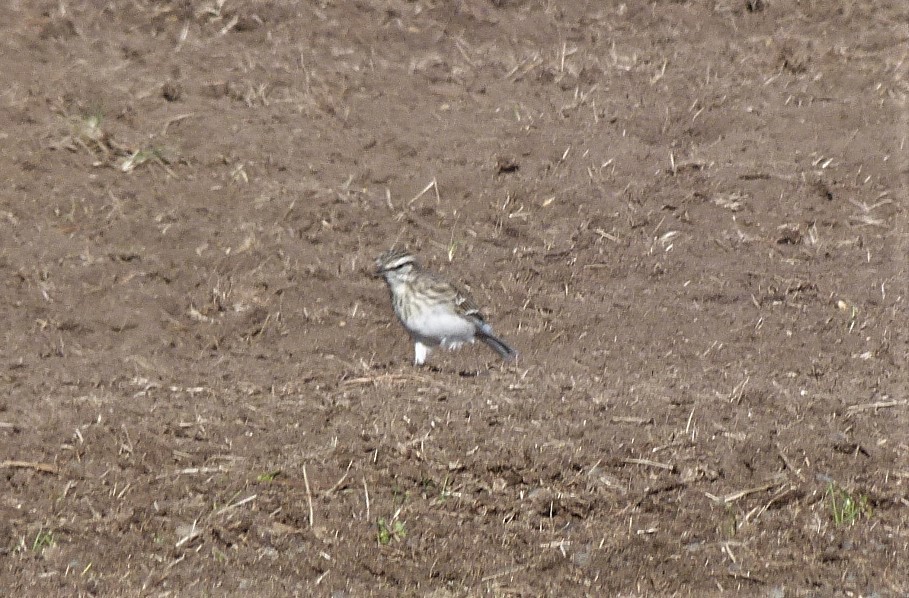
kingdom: Animalia
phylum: Chordata
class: Aves
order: Passeriformes
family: Motacillidae
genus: Anthus
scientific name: Anthus novaeseelandiae
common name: New zealand pipit
